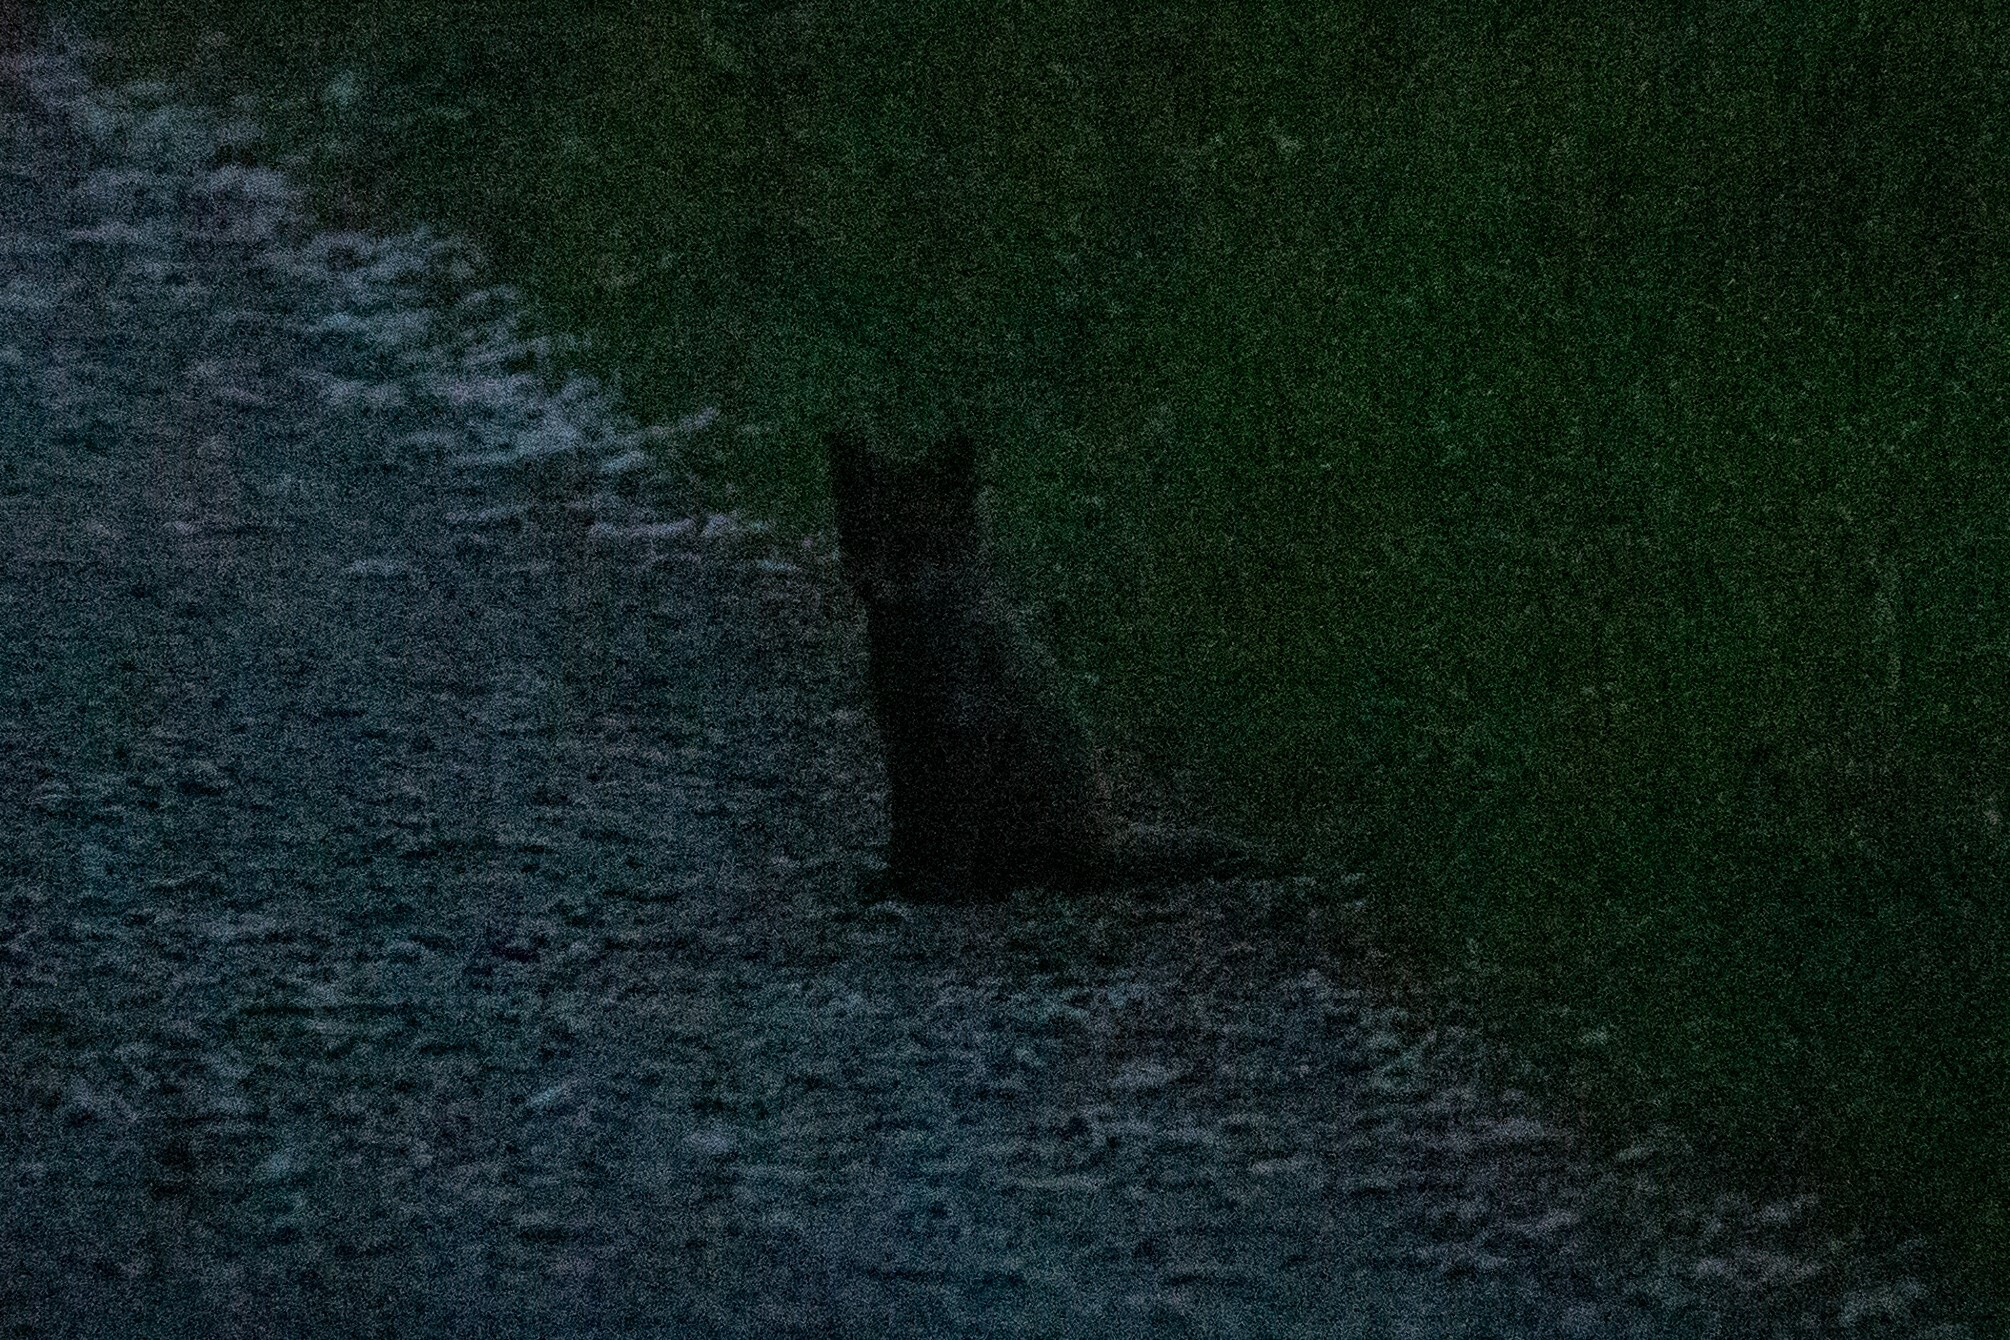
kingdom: Animalia
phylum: Chordata
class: Mammalia
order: Carnivora
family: Canidae
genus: Vulpes
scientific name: Vulpes vulpes
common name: Red fox
